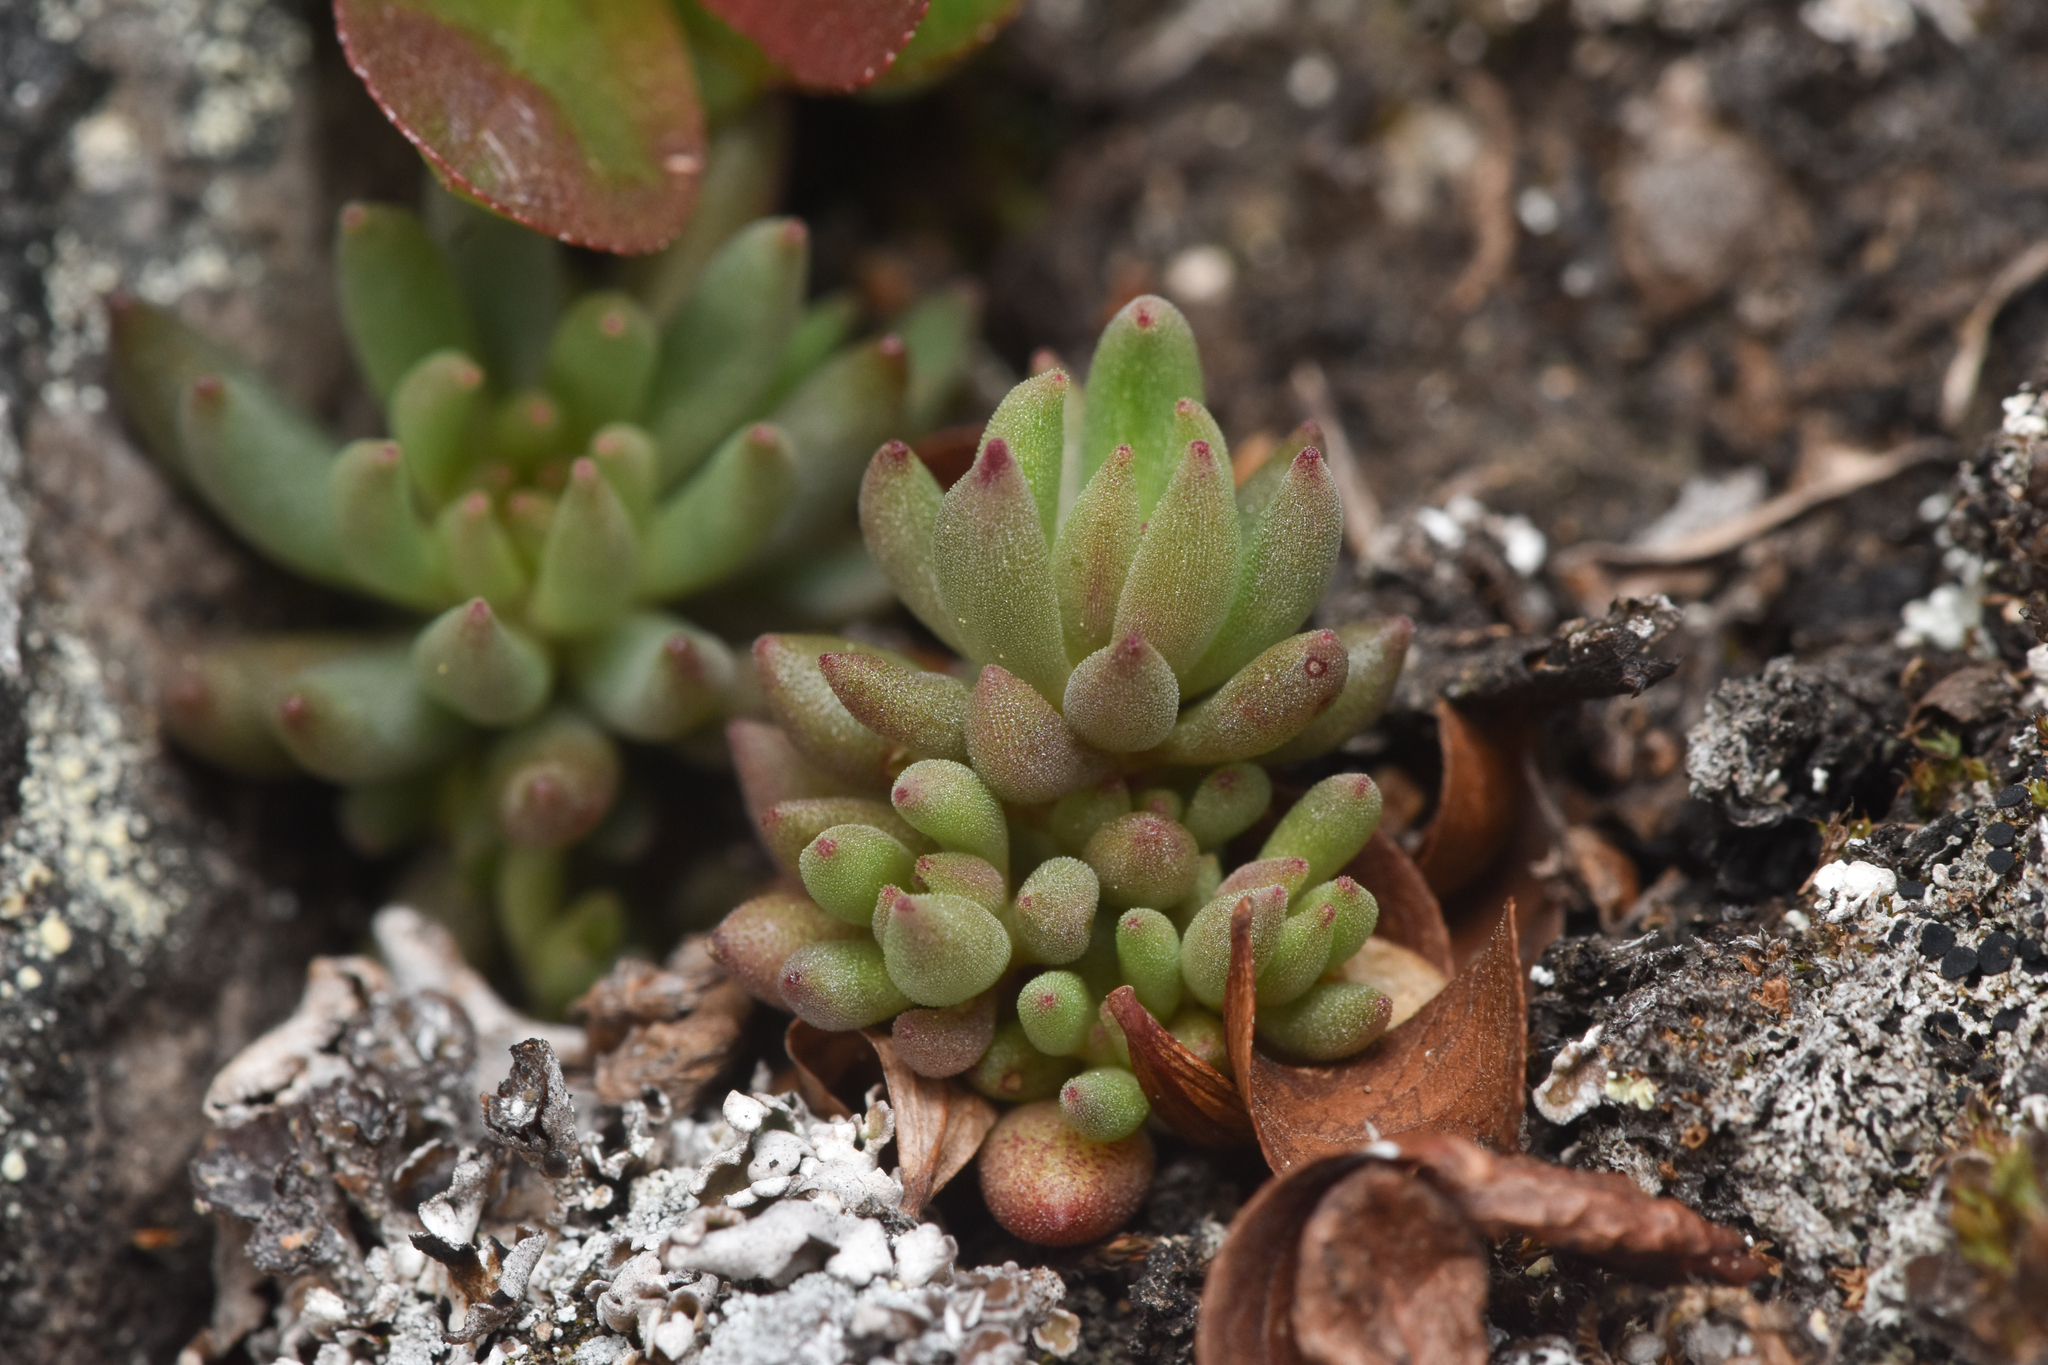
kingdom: Plantae
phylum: Tracheophyta
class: Magnoliopsida
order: Saxifragales
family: Crassulaceae
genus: Sedum
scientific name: Sedum lanceolatum
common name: Common stonecrop
